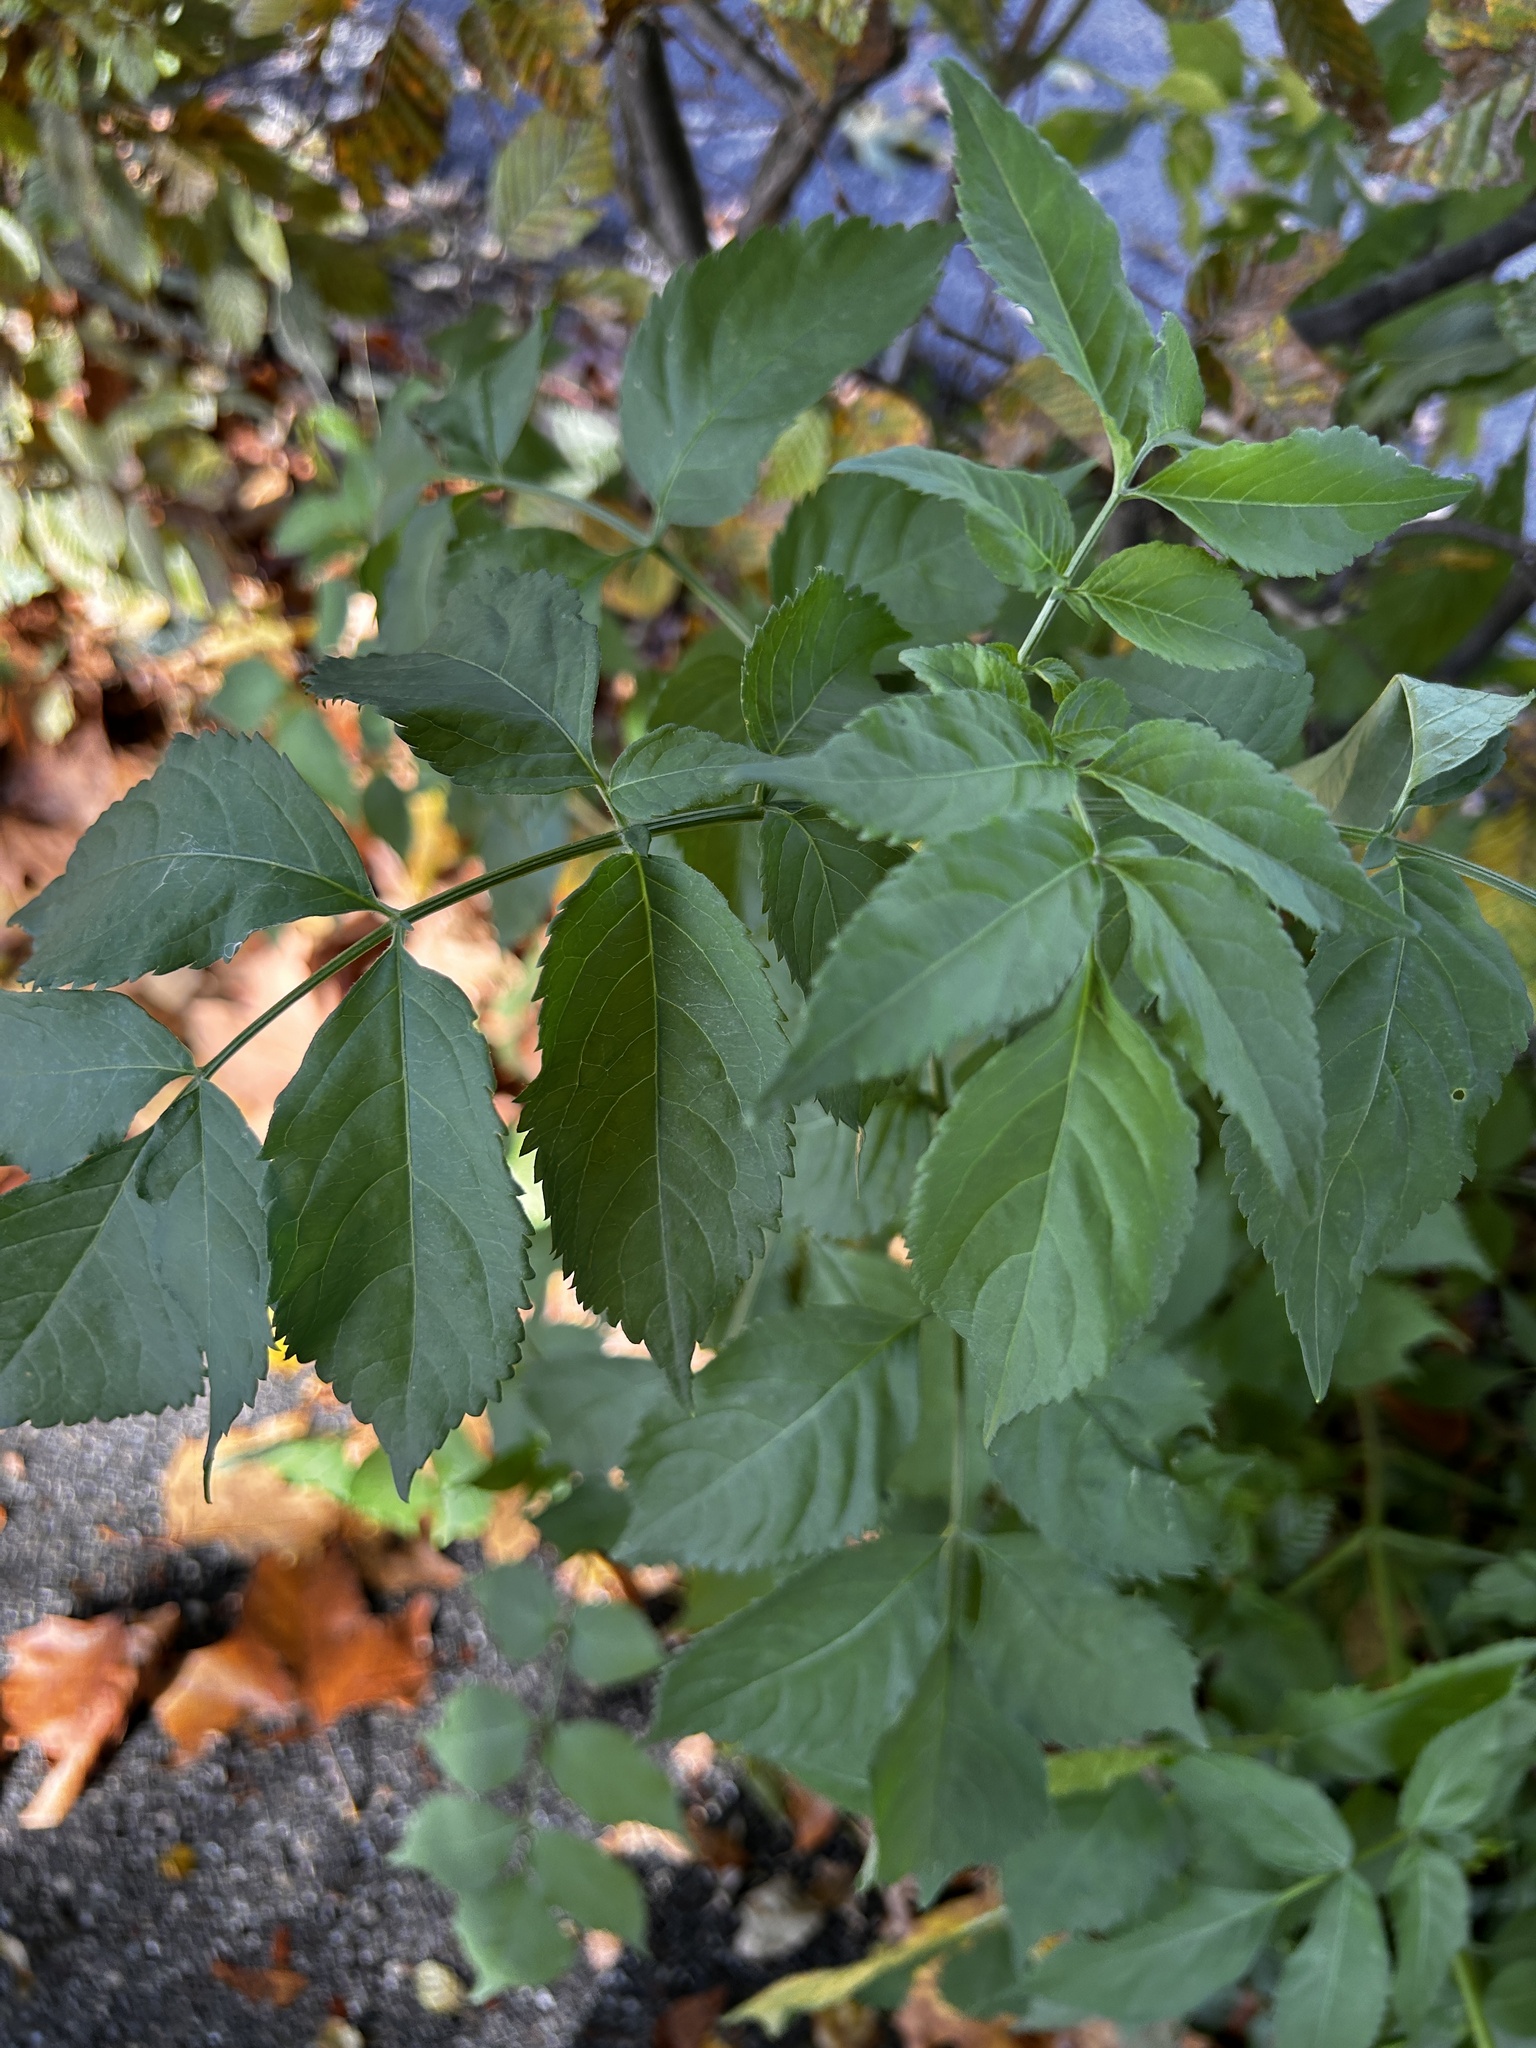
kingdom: Plantae
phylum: Tracheophyta
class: Magnoliopsida
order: Dipsacales
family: Viburnaceae
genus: Sambucus
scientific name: Sambucus nigra
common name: Elder
